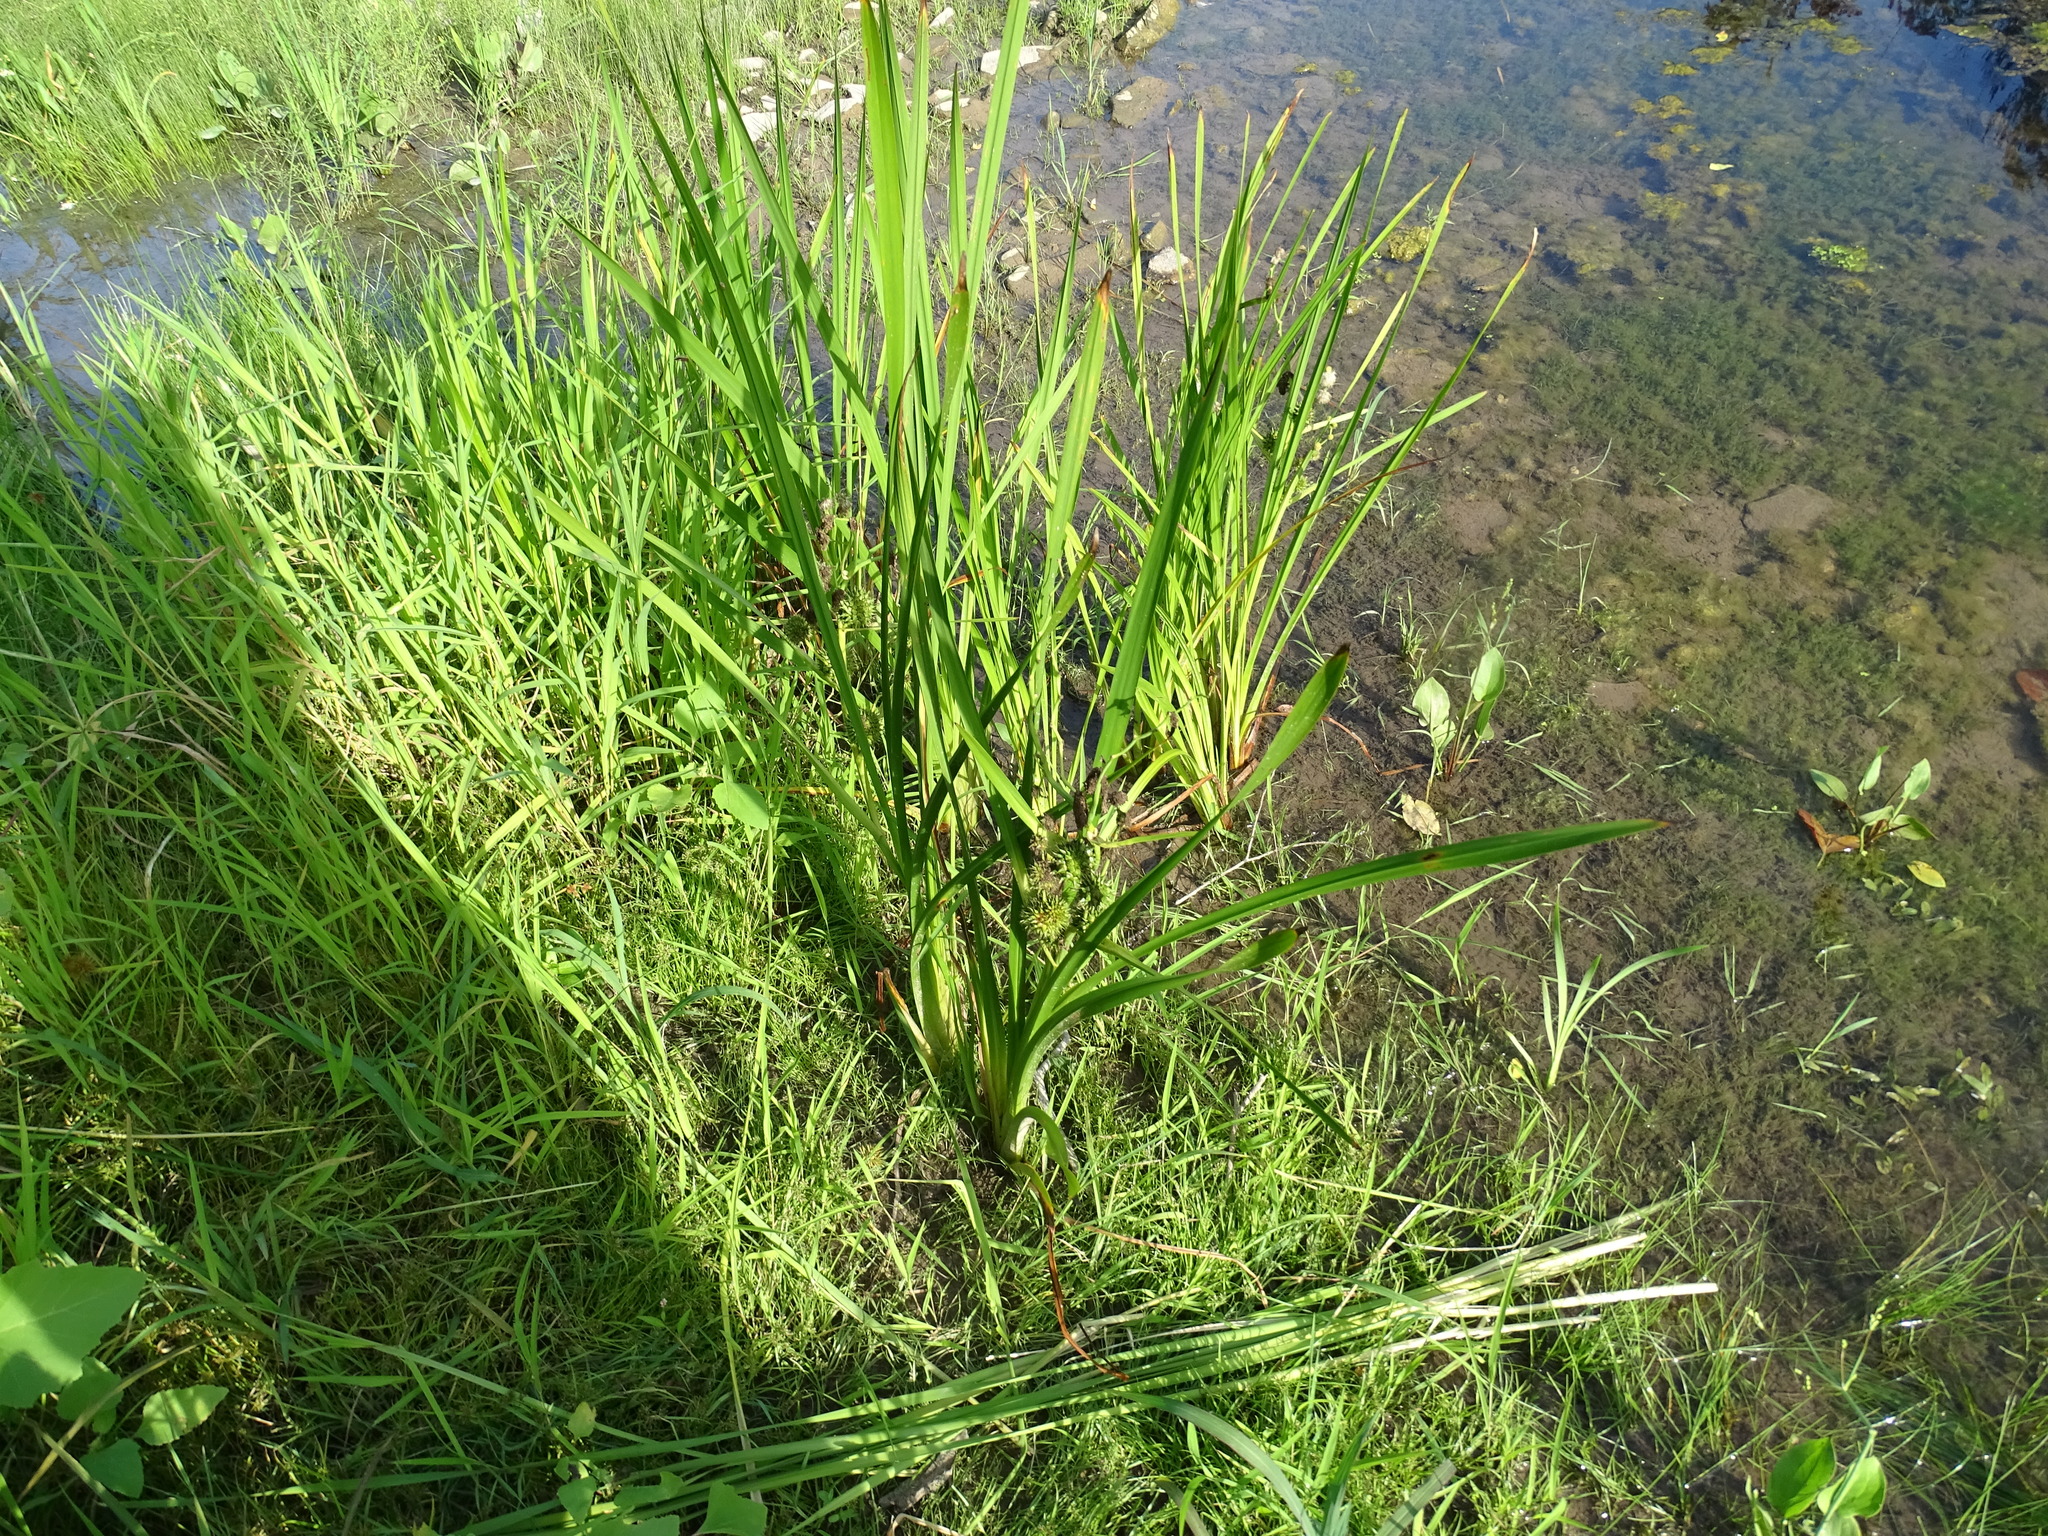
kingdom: Plantae
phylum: Tracheophyta
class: Liliopsida
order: Poales
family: Typhaceae
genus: Sparganium
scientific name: Sparganium eurycarpum
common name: Broad-fruited burreed
